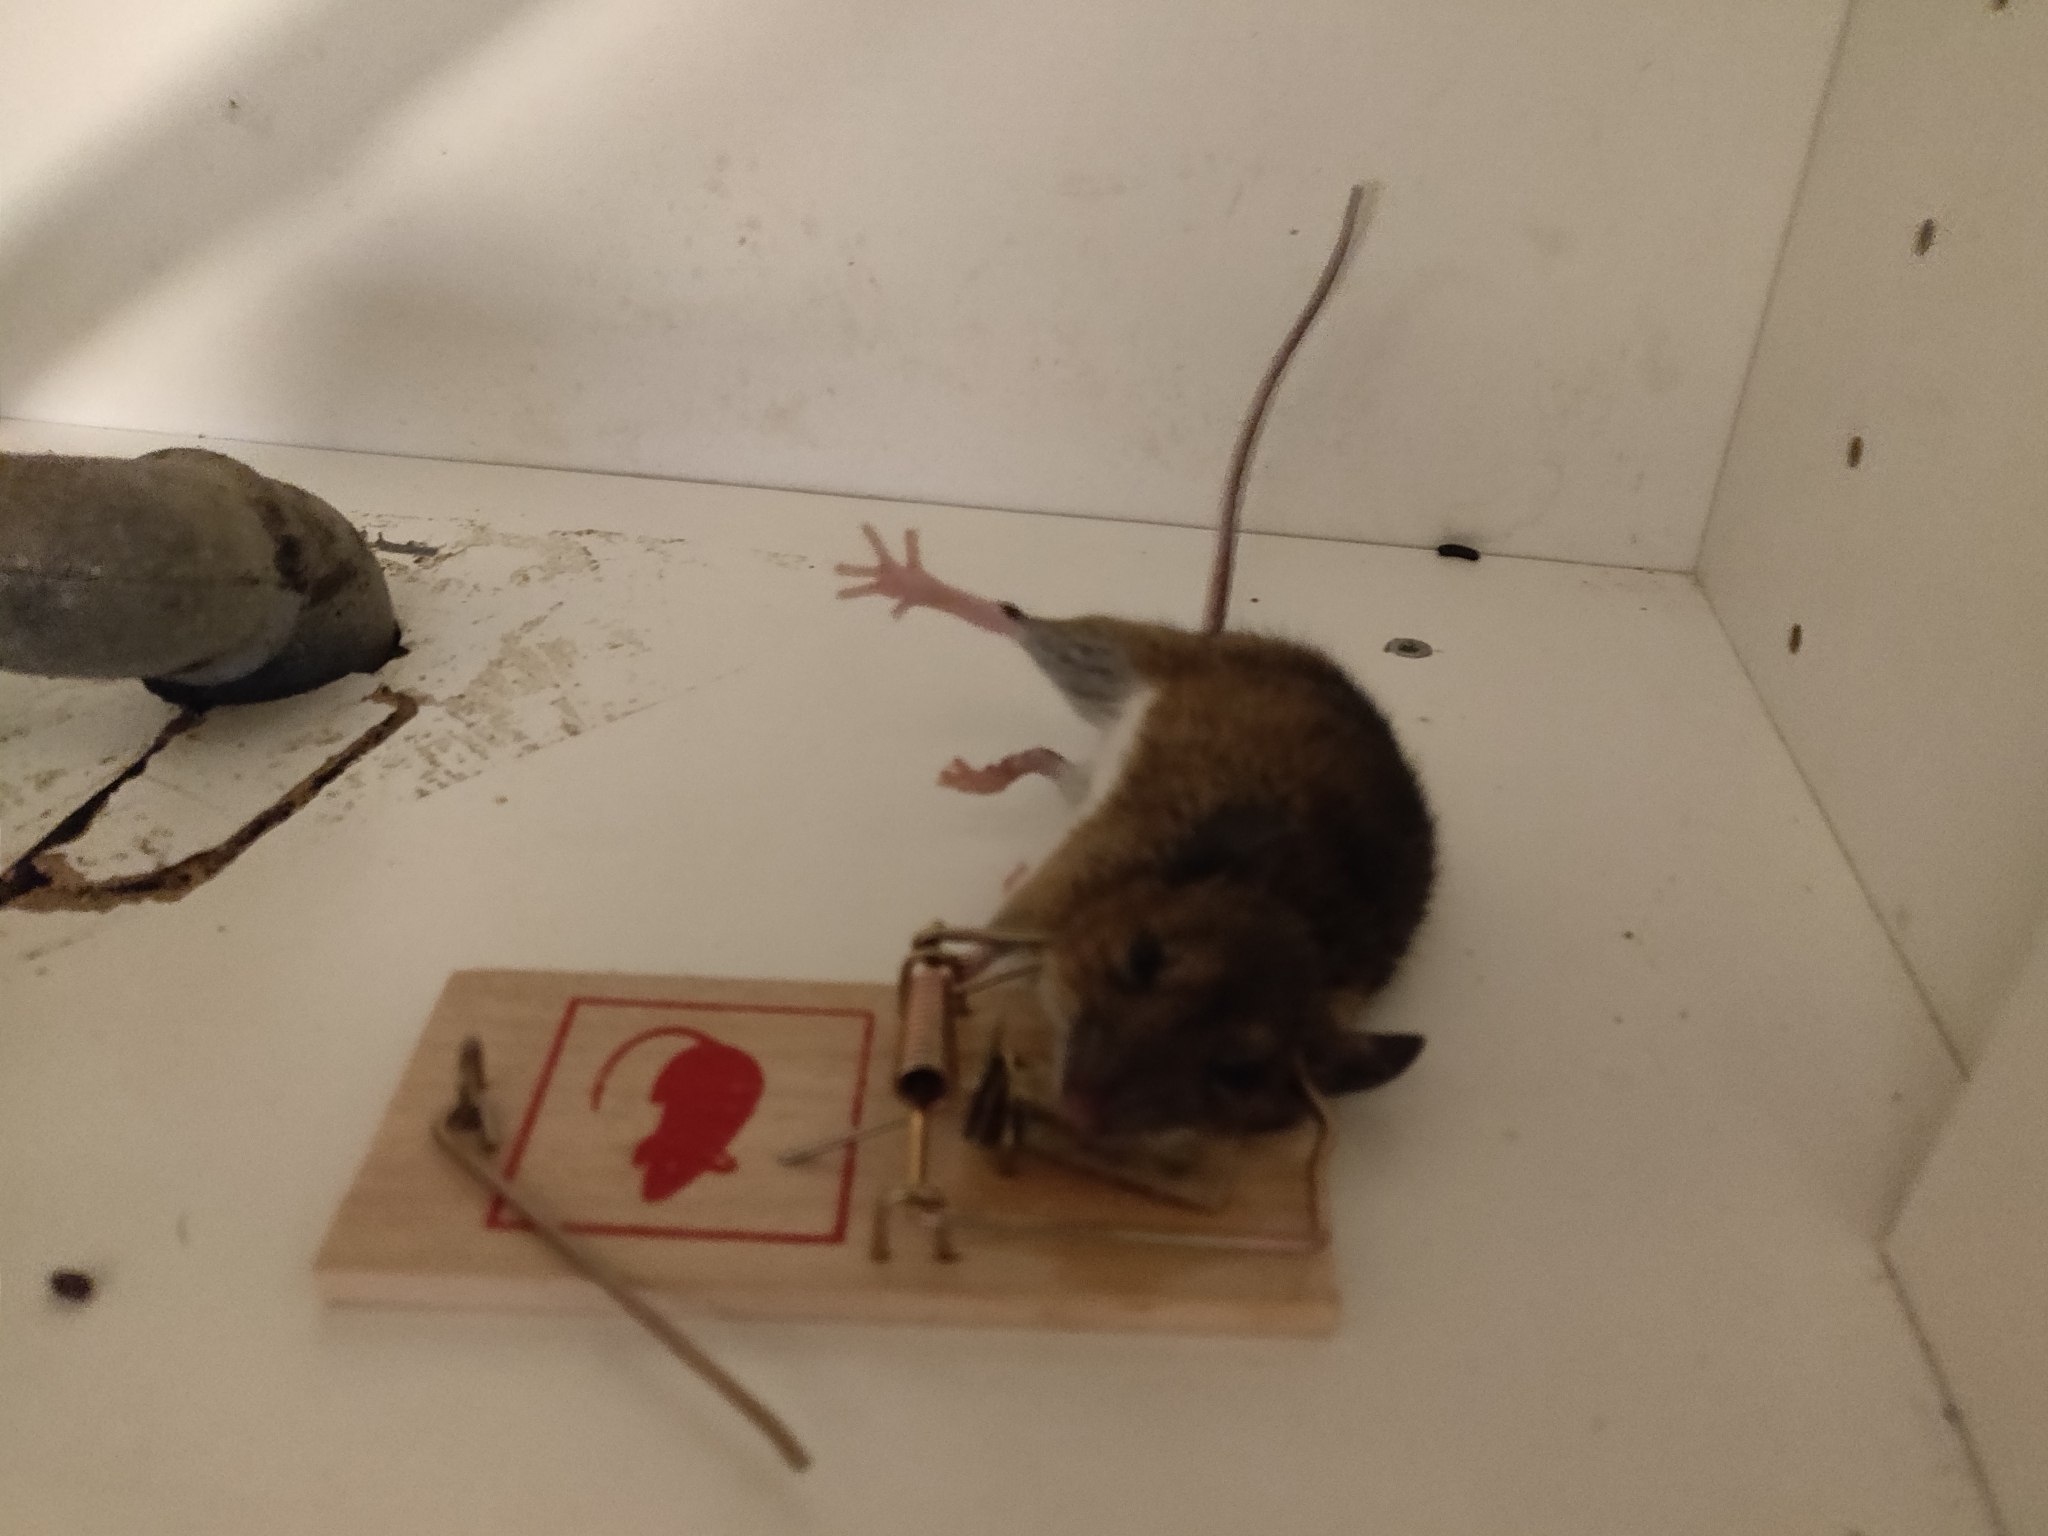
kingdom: Animalia
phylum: Chordata
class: Mammalia
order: Rodentia
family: Muridae
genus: Apodemus
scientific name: Apodemus flavicollis
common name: Yellow-necked field mouse
